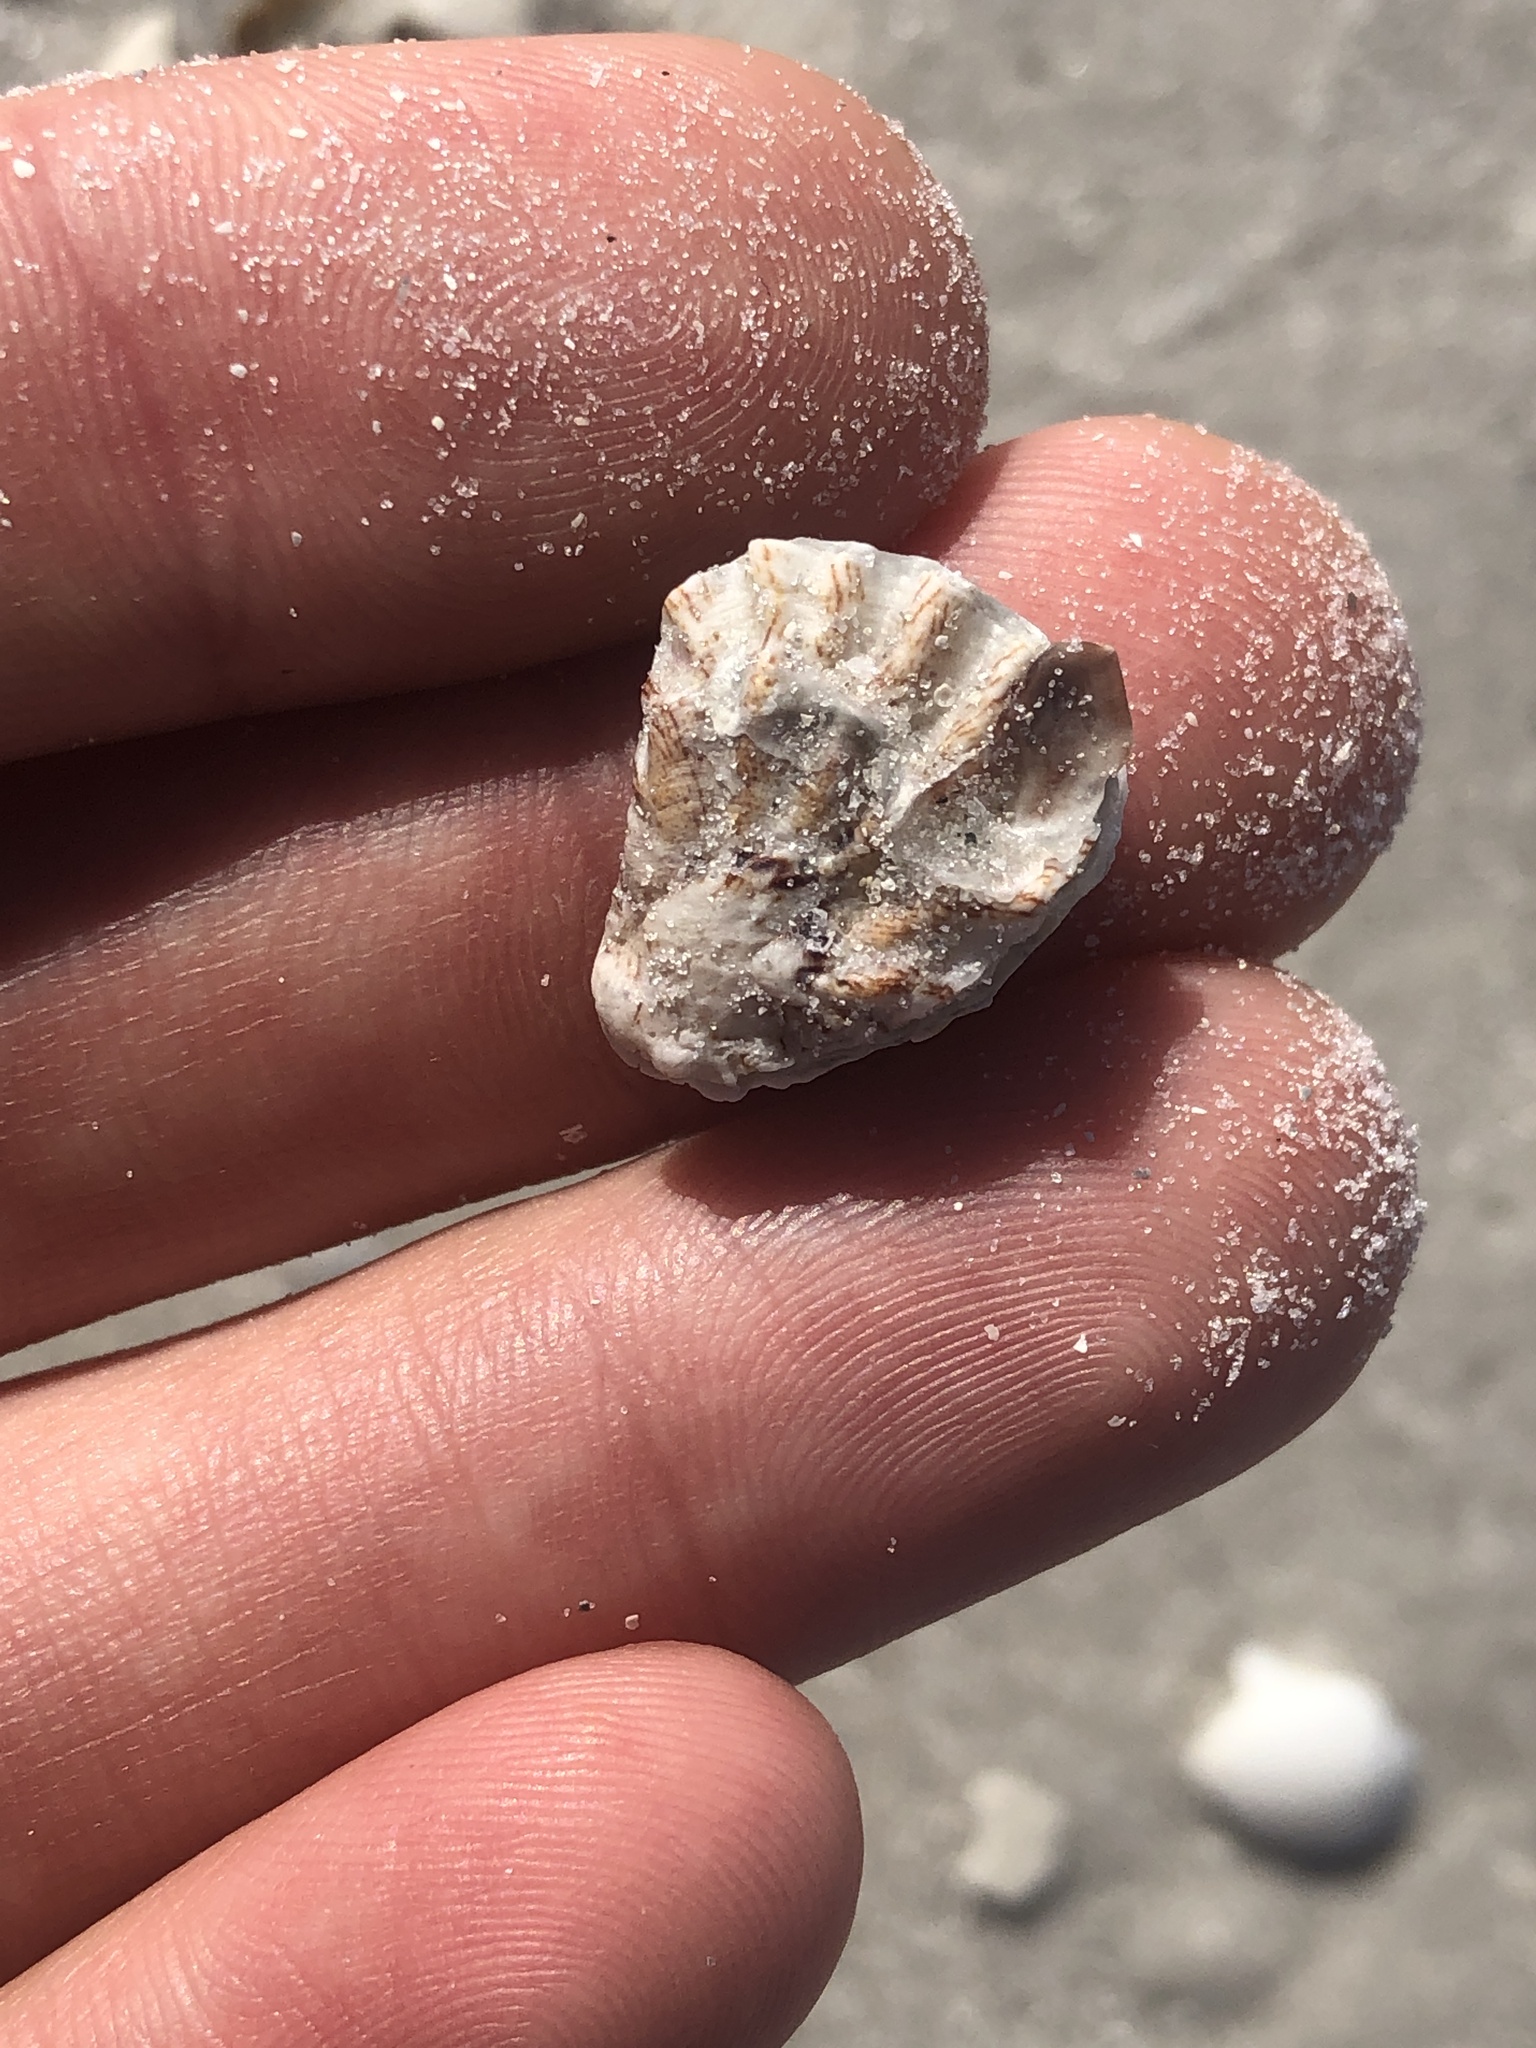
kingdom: Animalia
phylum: Mollusca
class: Bivalvia
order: Pectinida
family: Plicatulidae
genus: Plicatula
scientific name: Plicatula gibbosa
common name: Atlantic kitten's paw
